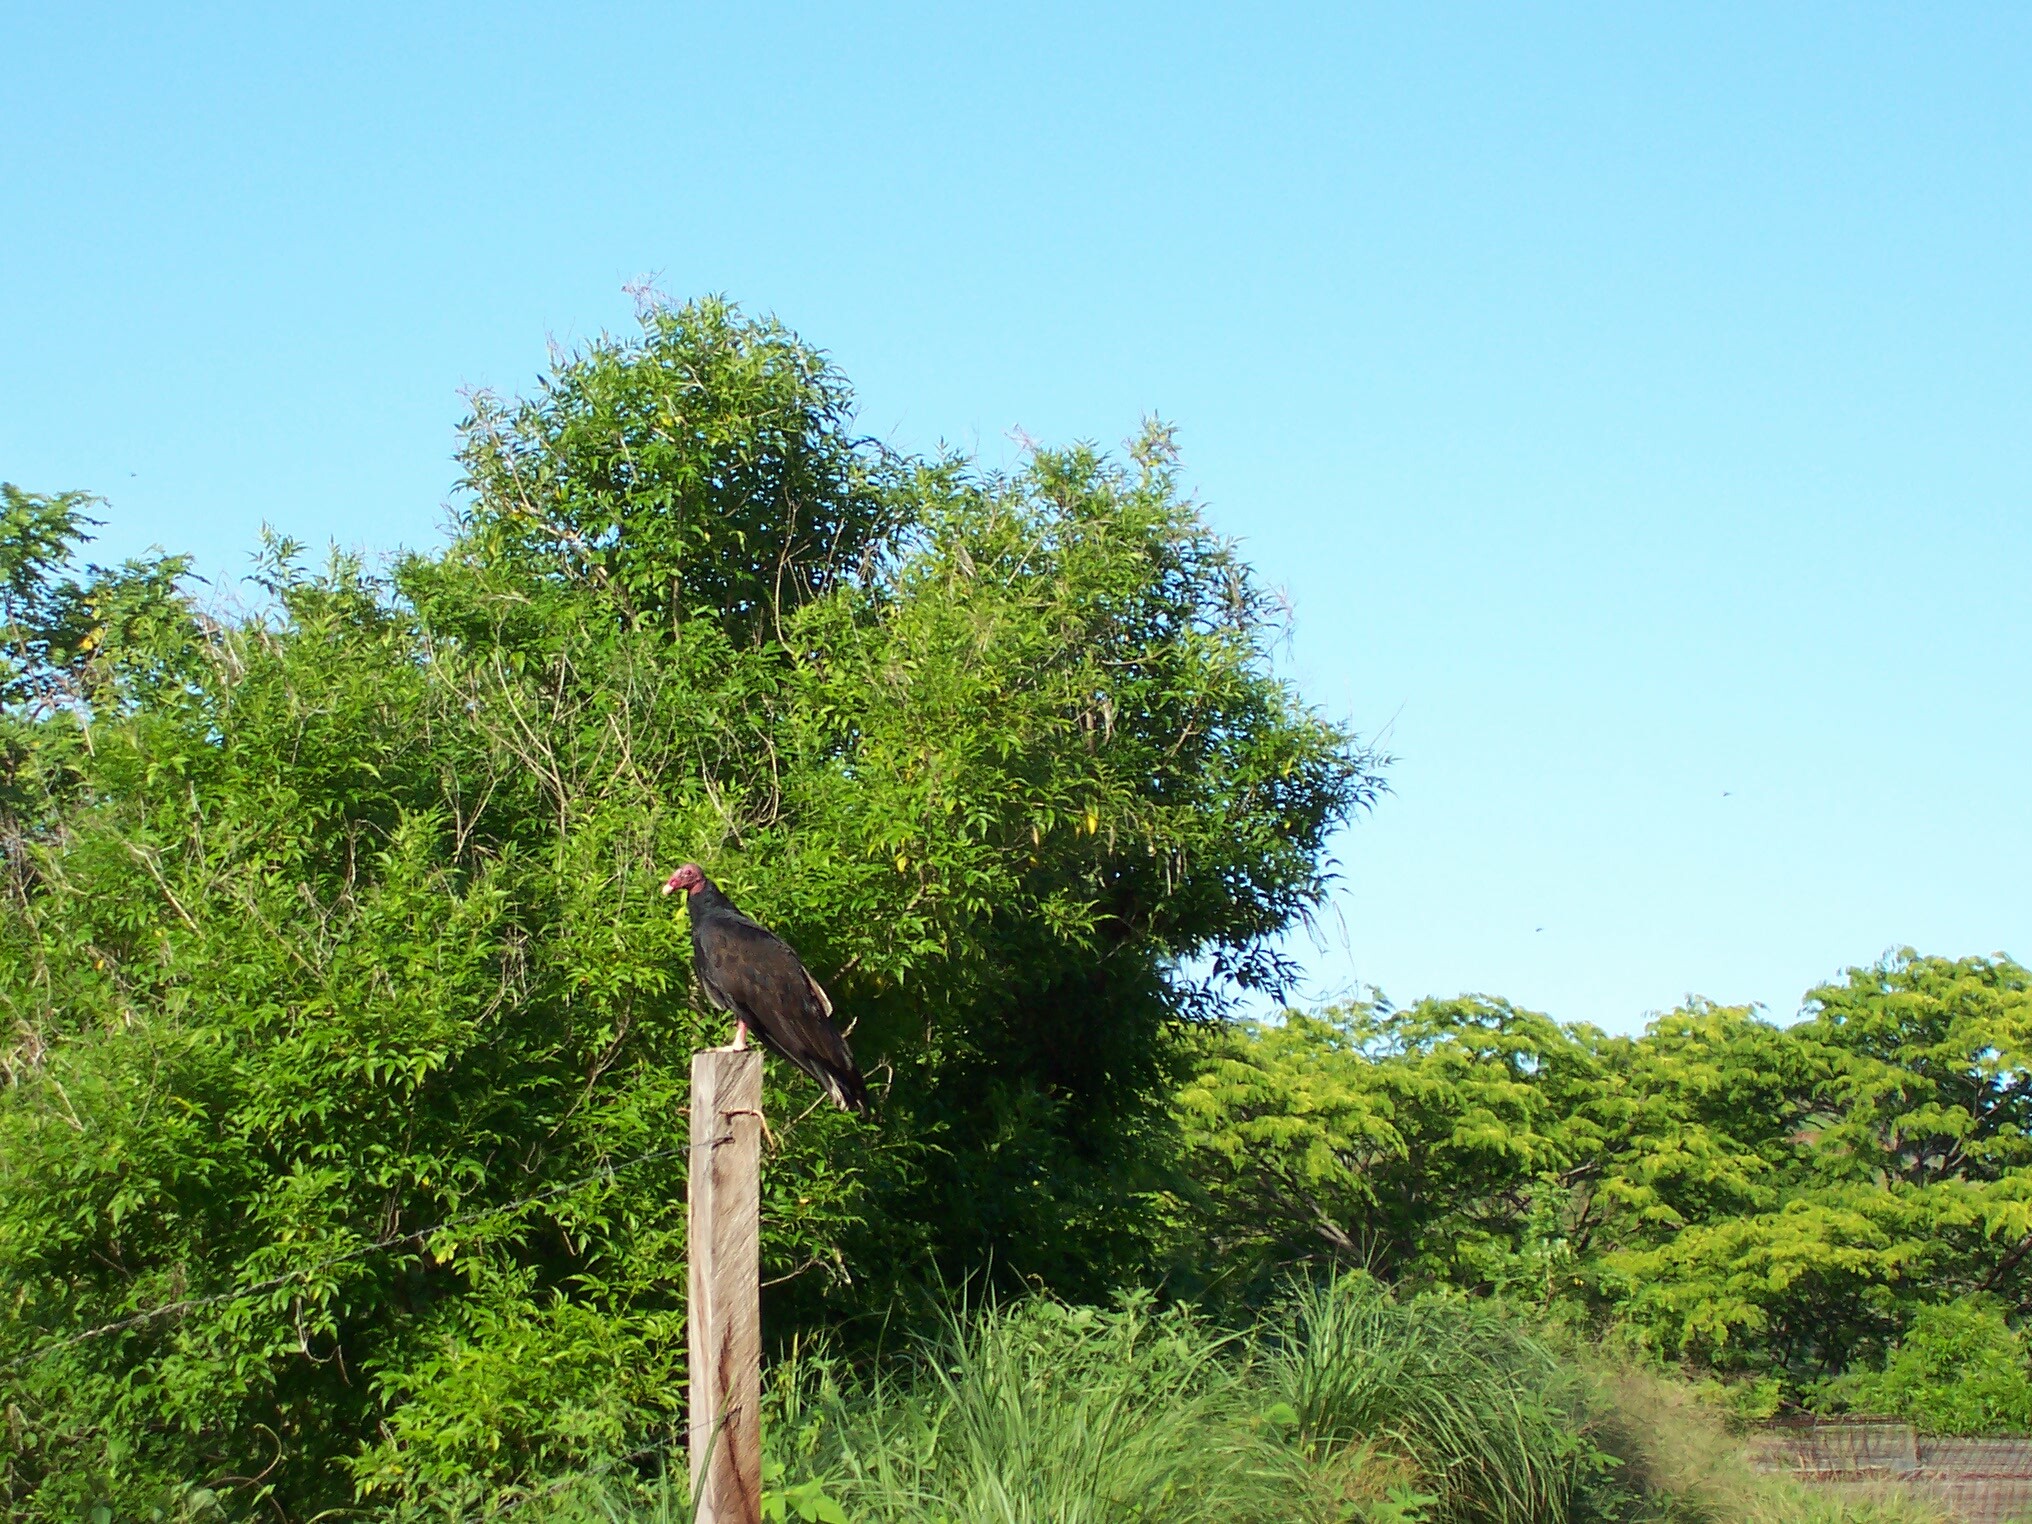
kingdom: Animalia
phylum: Chordata
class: Aves
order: Accipitriformes
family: Cathartidae
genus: Cathartes
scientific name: Cathartes aura
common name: Turkey vulture
